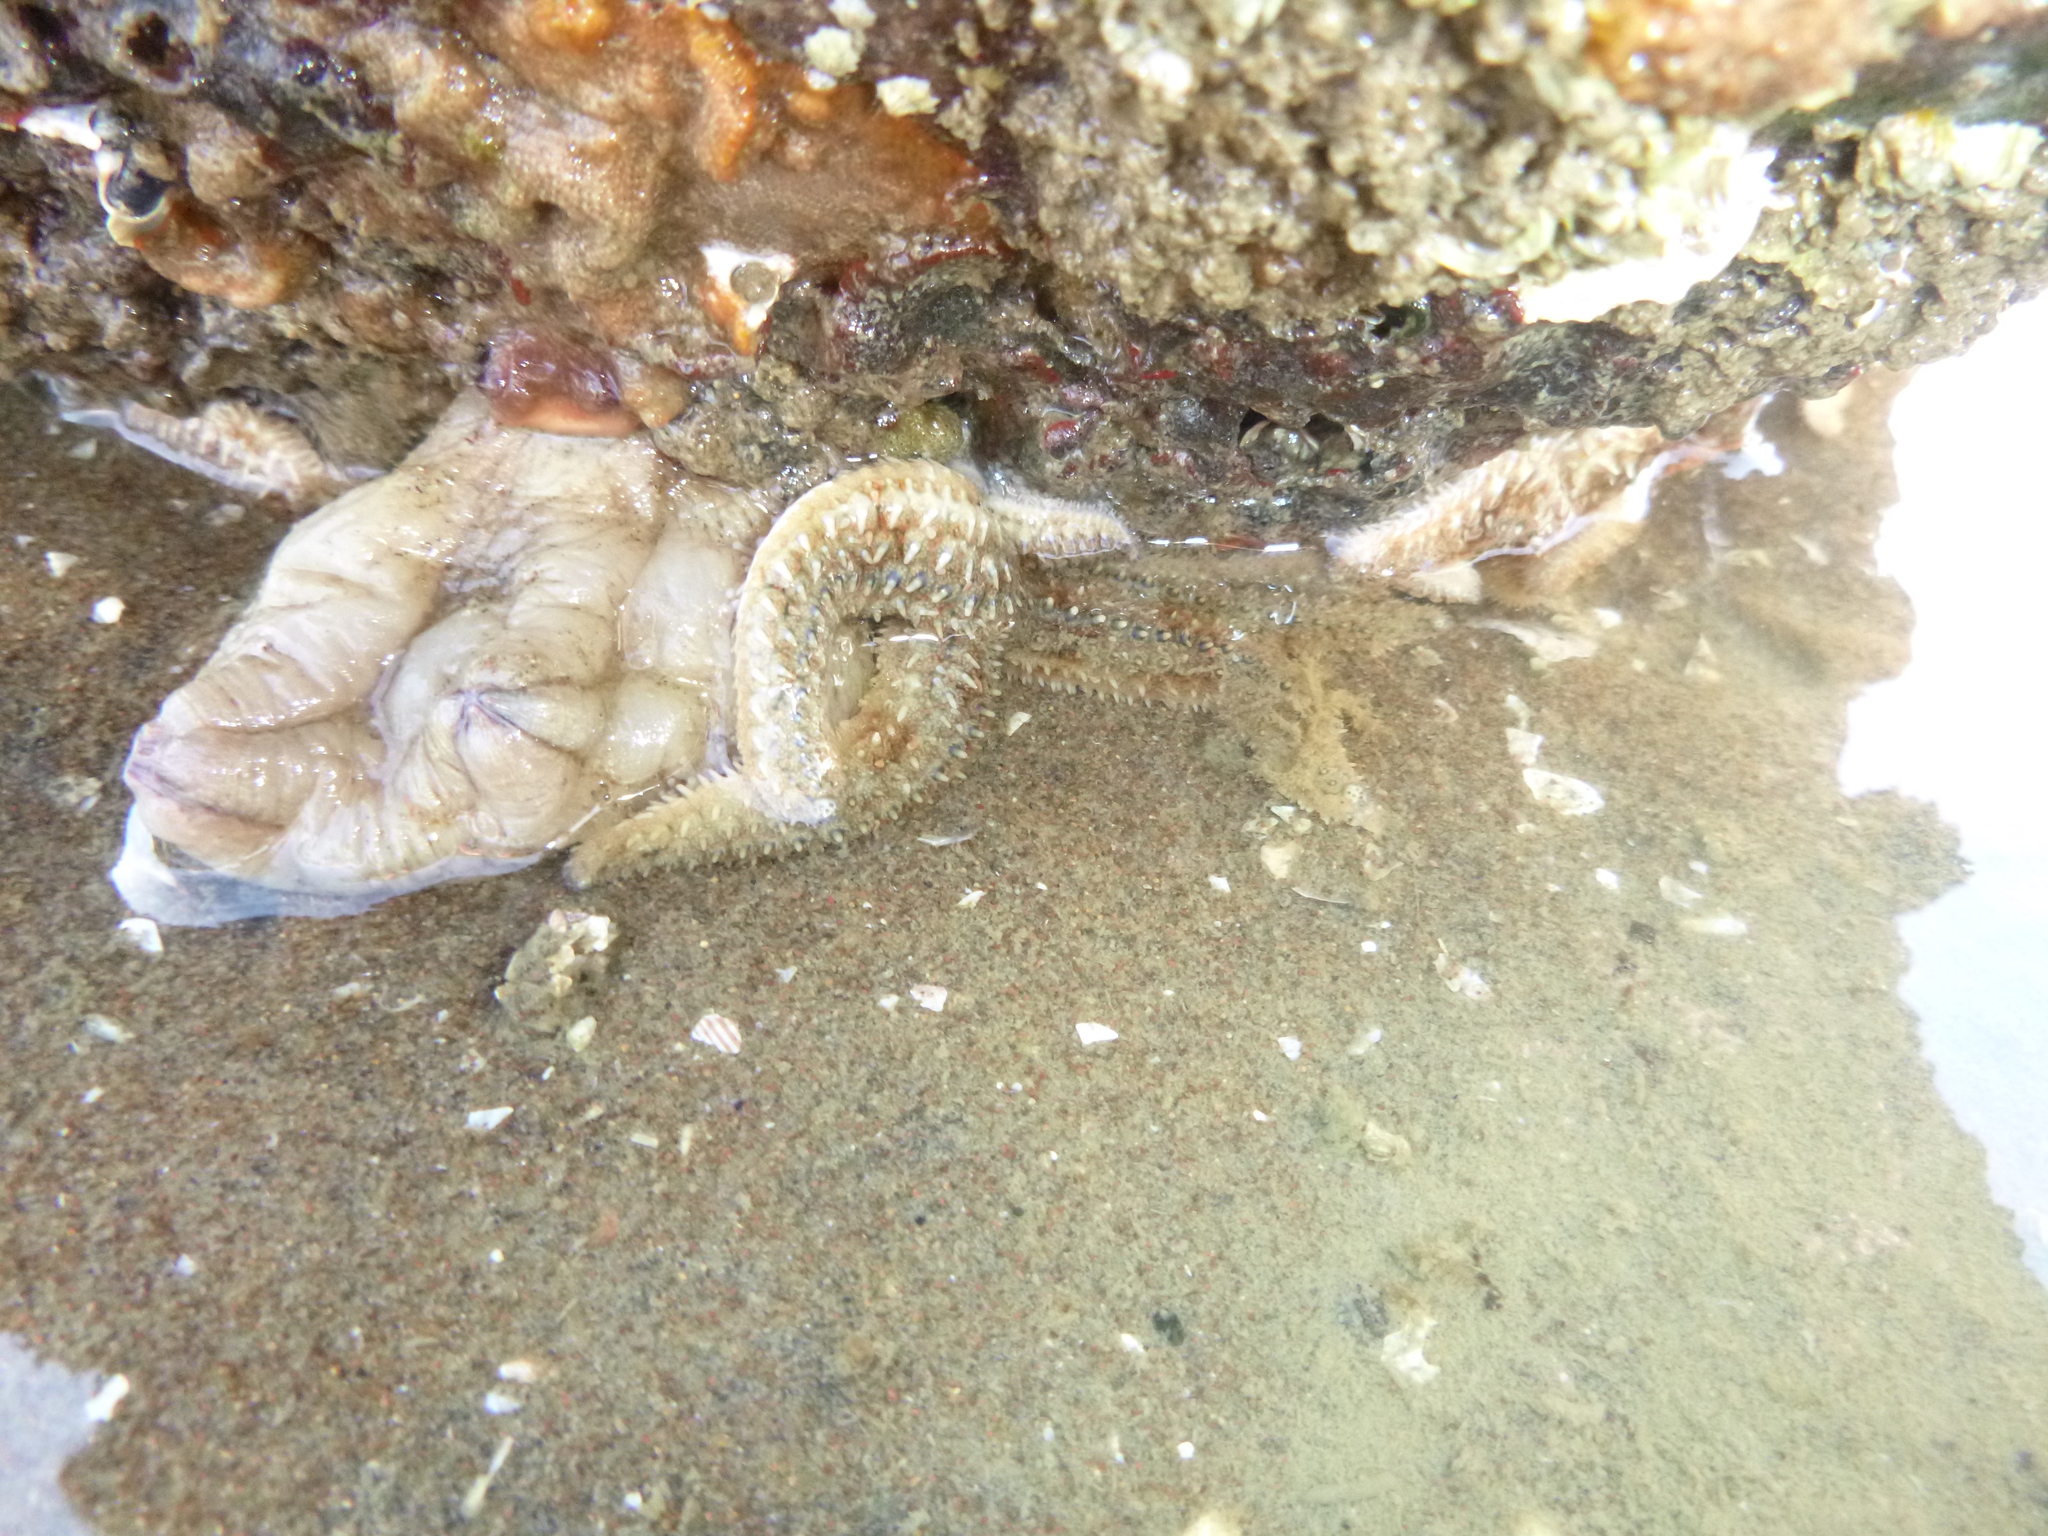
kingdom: Animalia
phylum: Chordata
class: Ascidiacea
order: Stolidobranchia
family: Styelidae
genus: Styela
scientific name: Styela plicata
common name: Pleated tunicate
